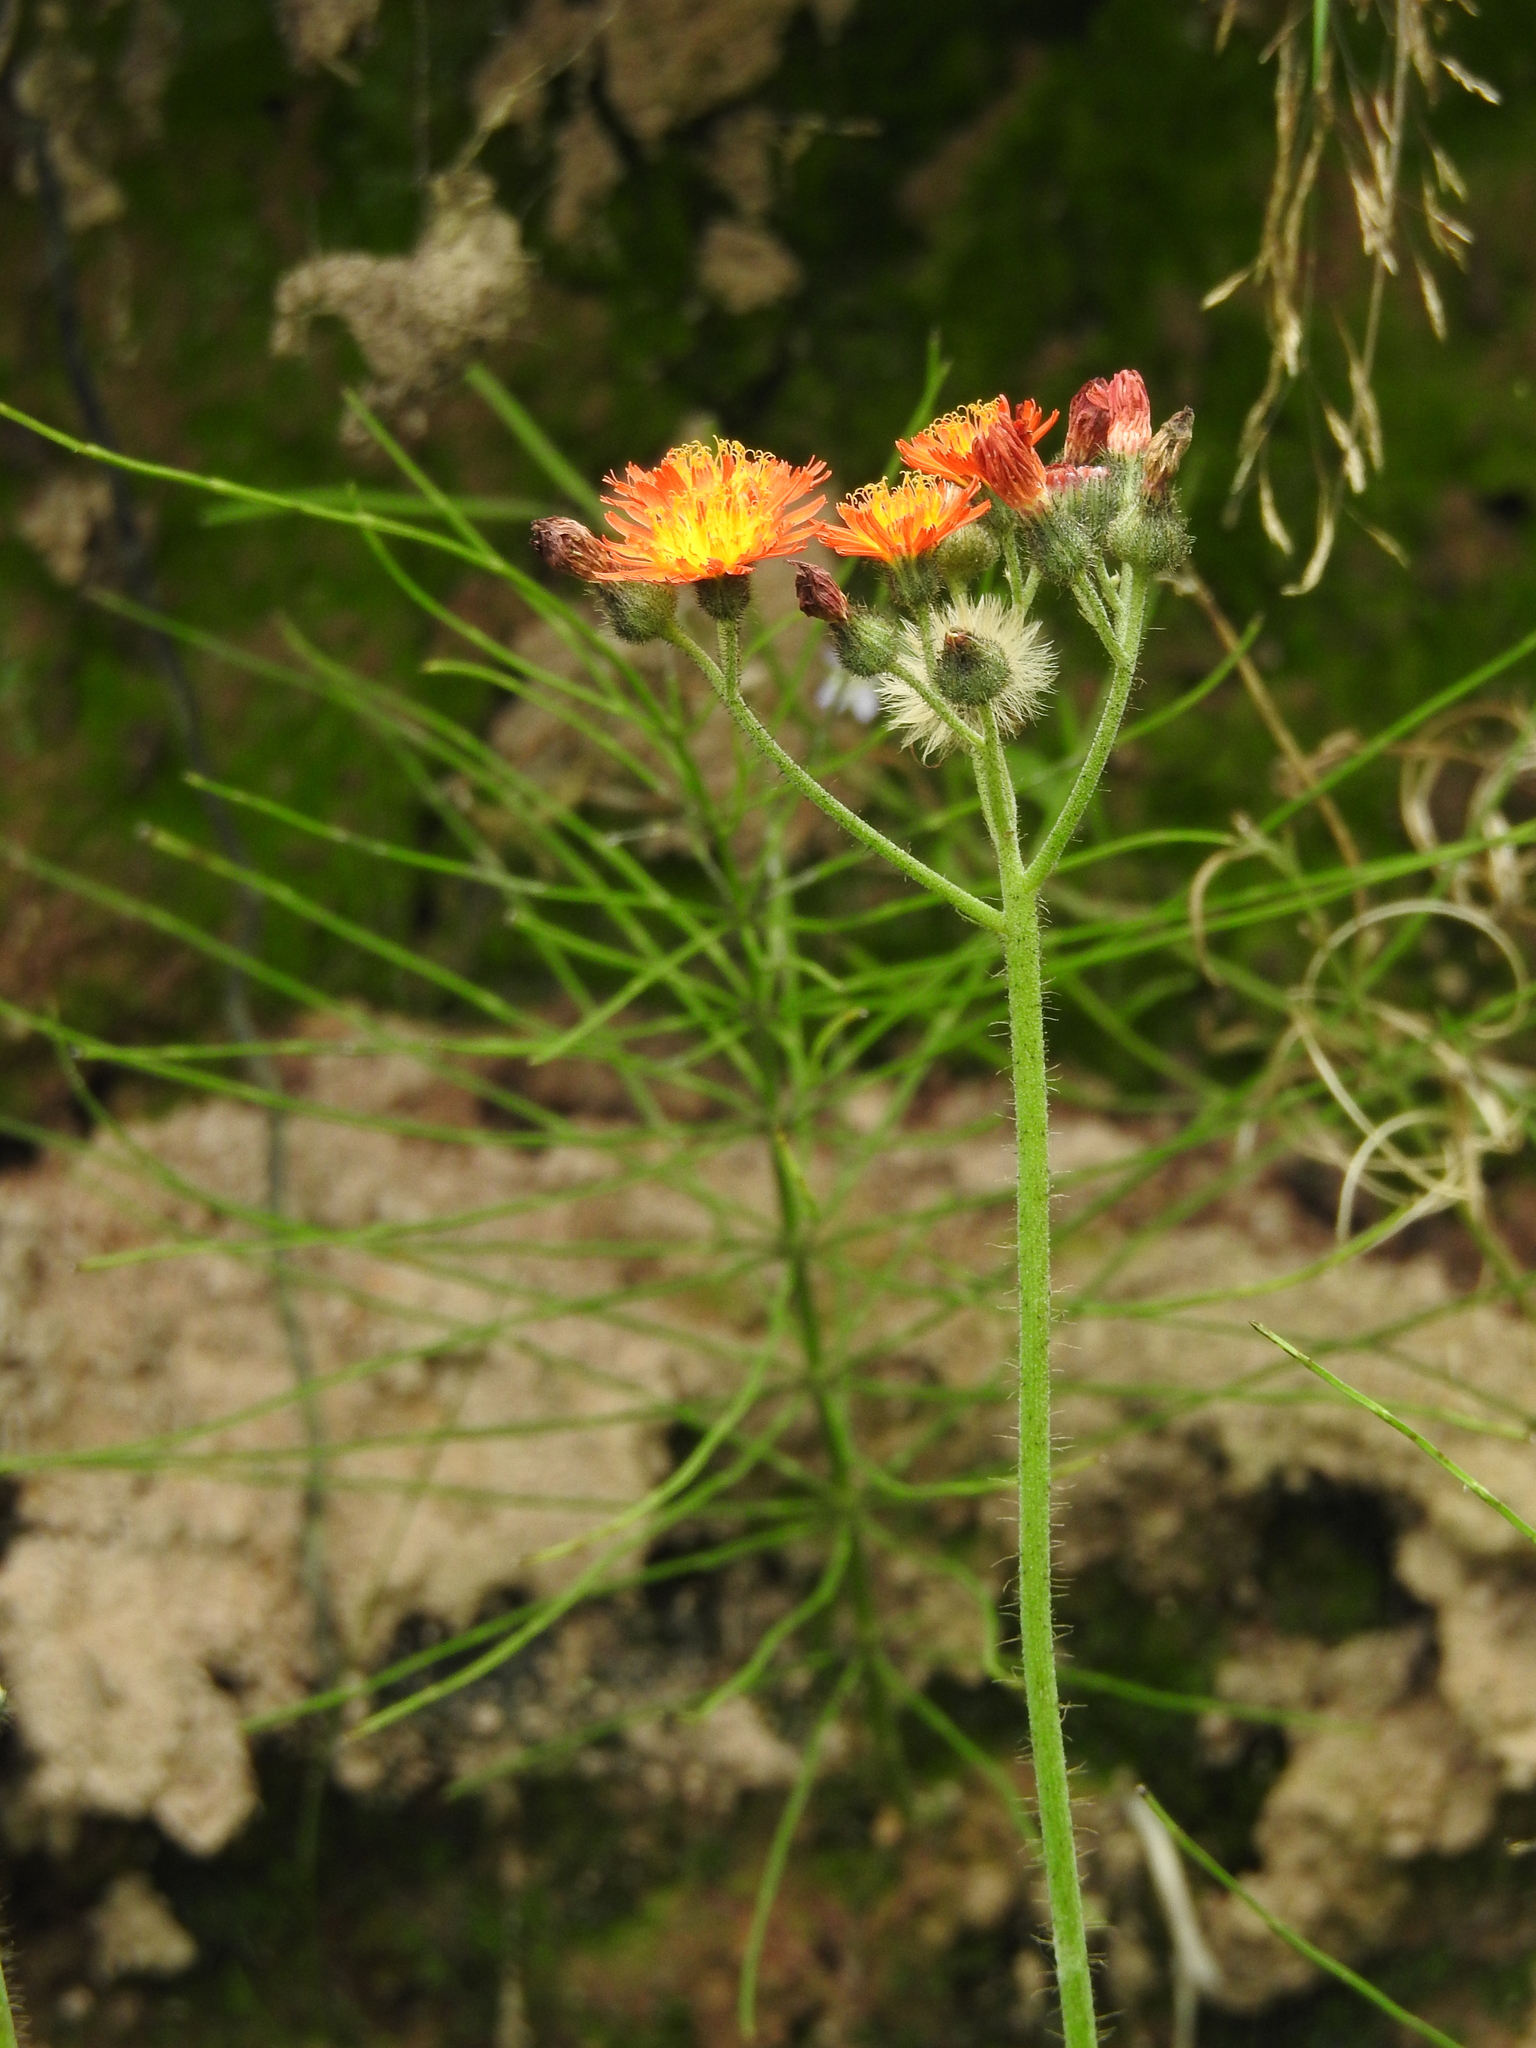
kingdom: Plantae
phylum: Tracheophyta
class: Magnoliopsida
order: Asterales
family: Asteraceae
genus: Pilosella
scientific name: Pilosella aurantiaca
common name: Fox-and-cubs
